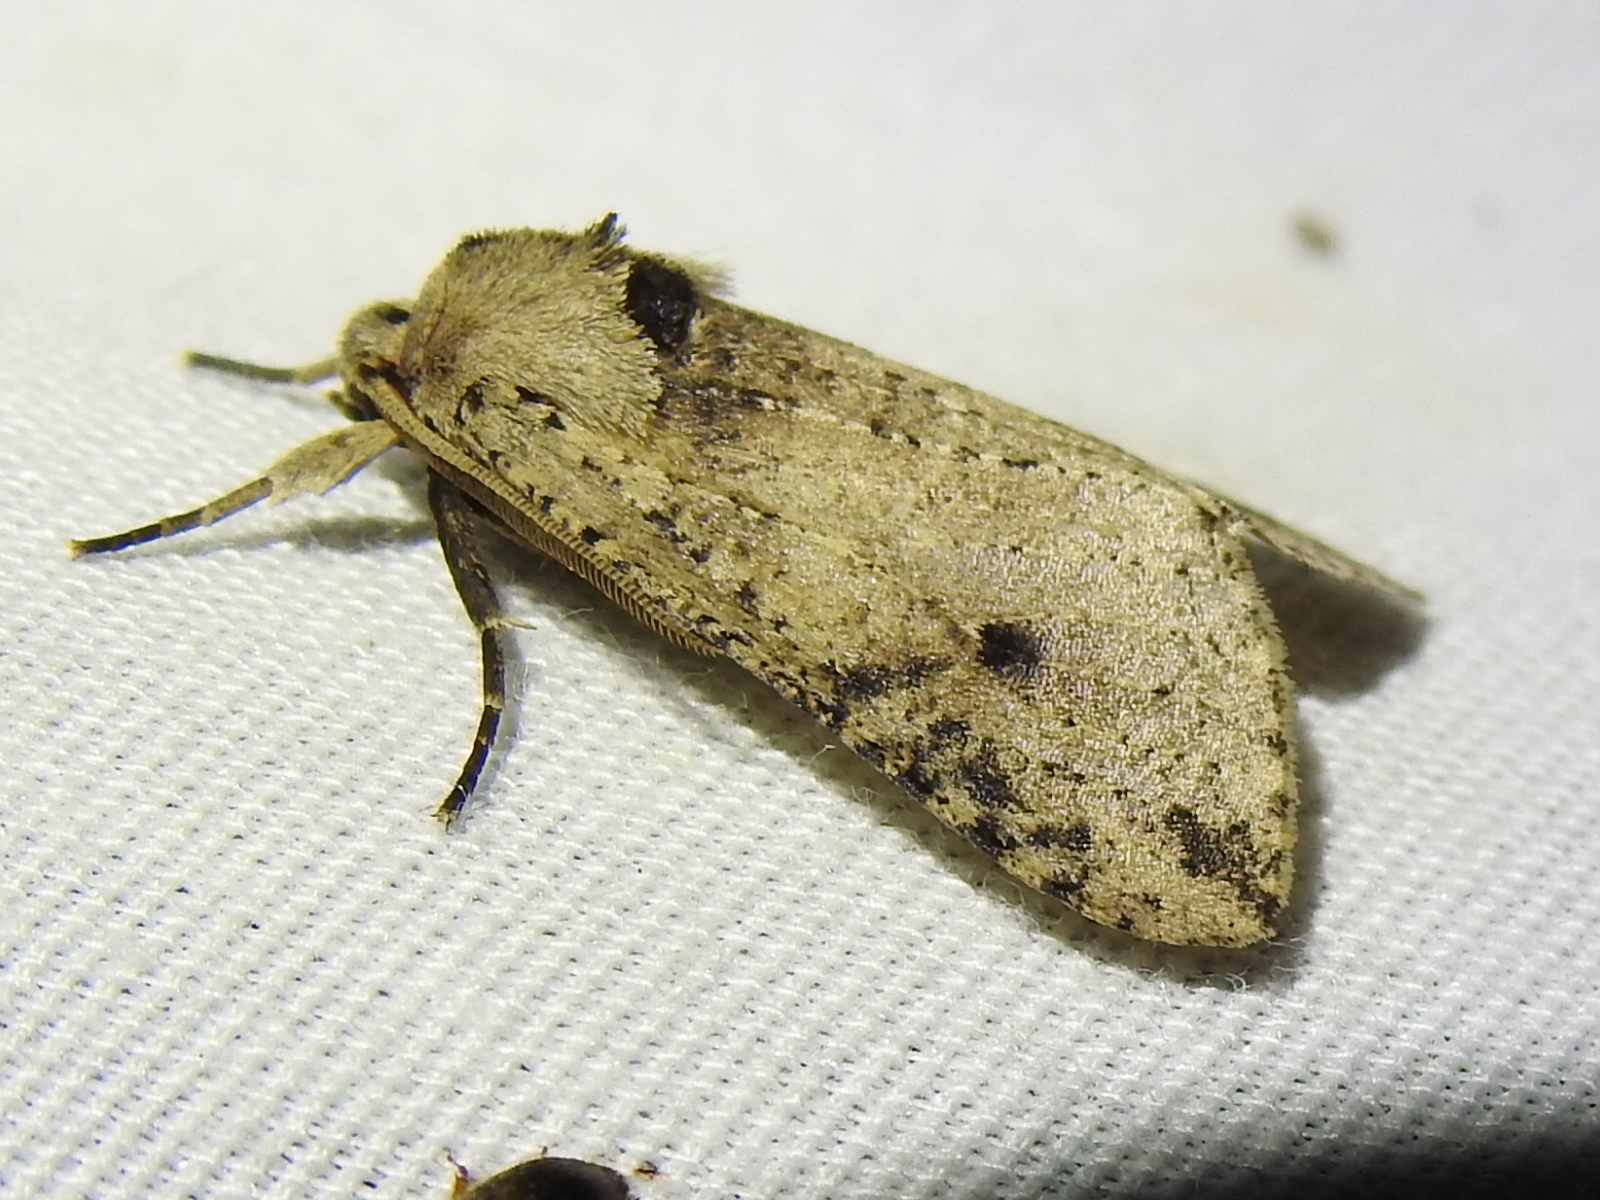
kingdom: Animalia
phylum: Arthropoda
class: Insecta
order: Lepidoptera
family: Erebidae
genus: Purius
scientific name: Purius superpulverea
